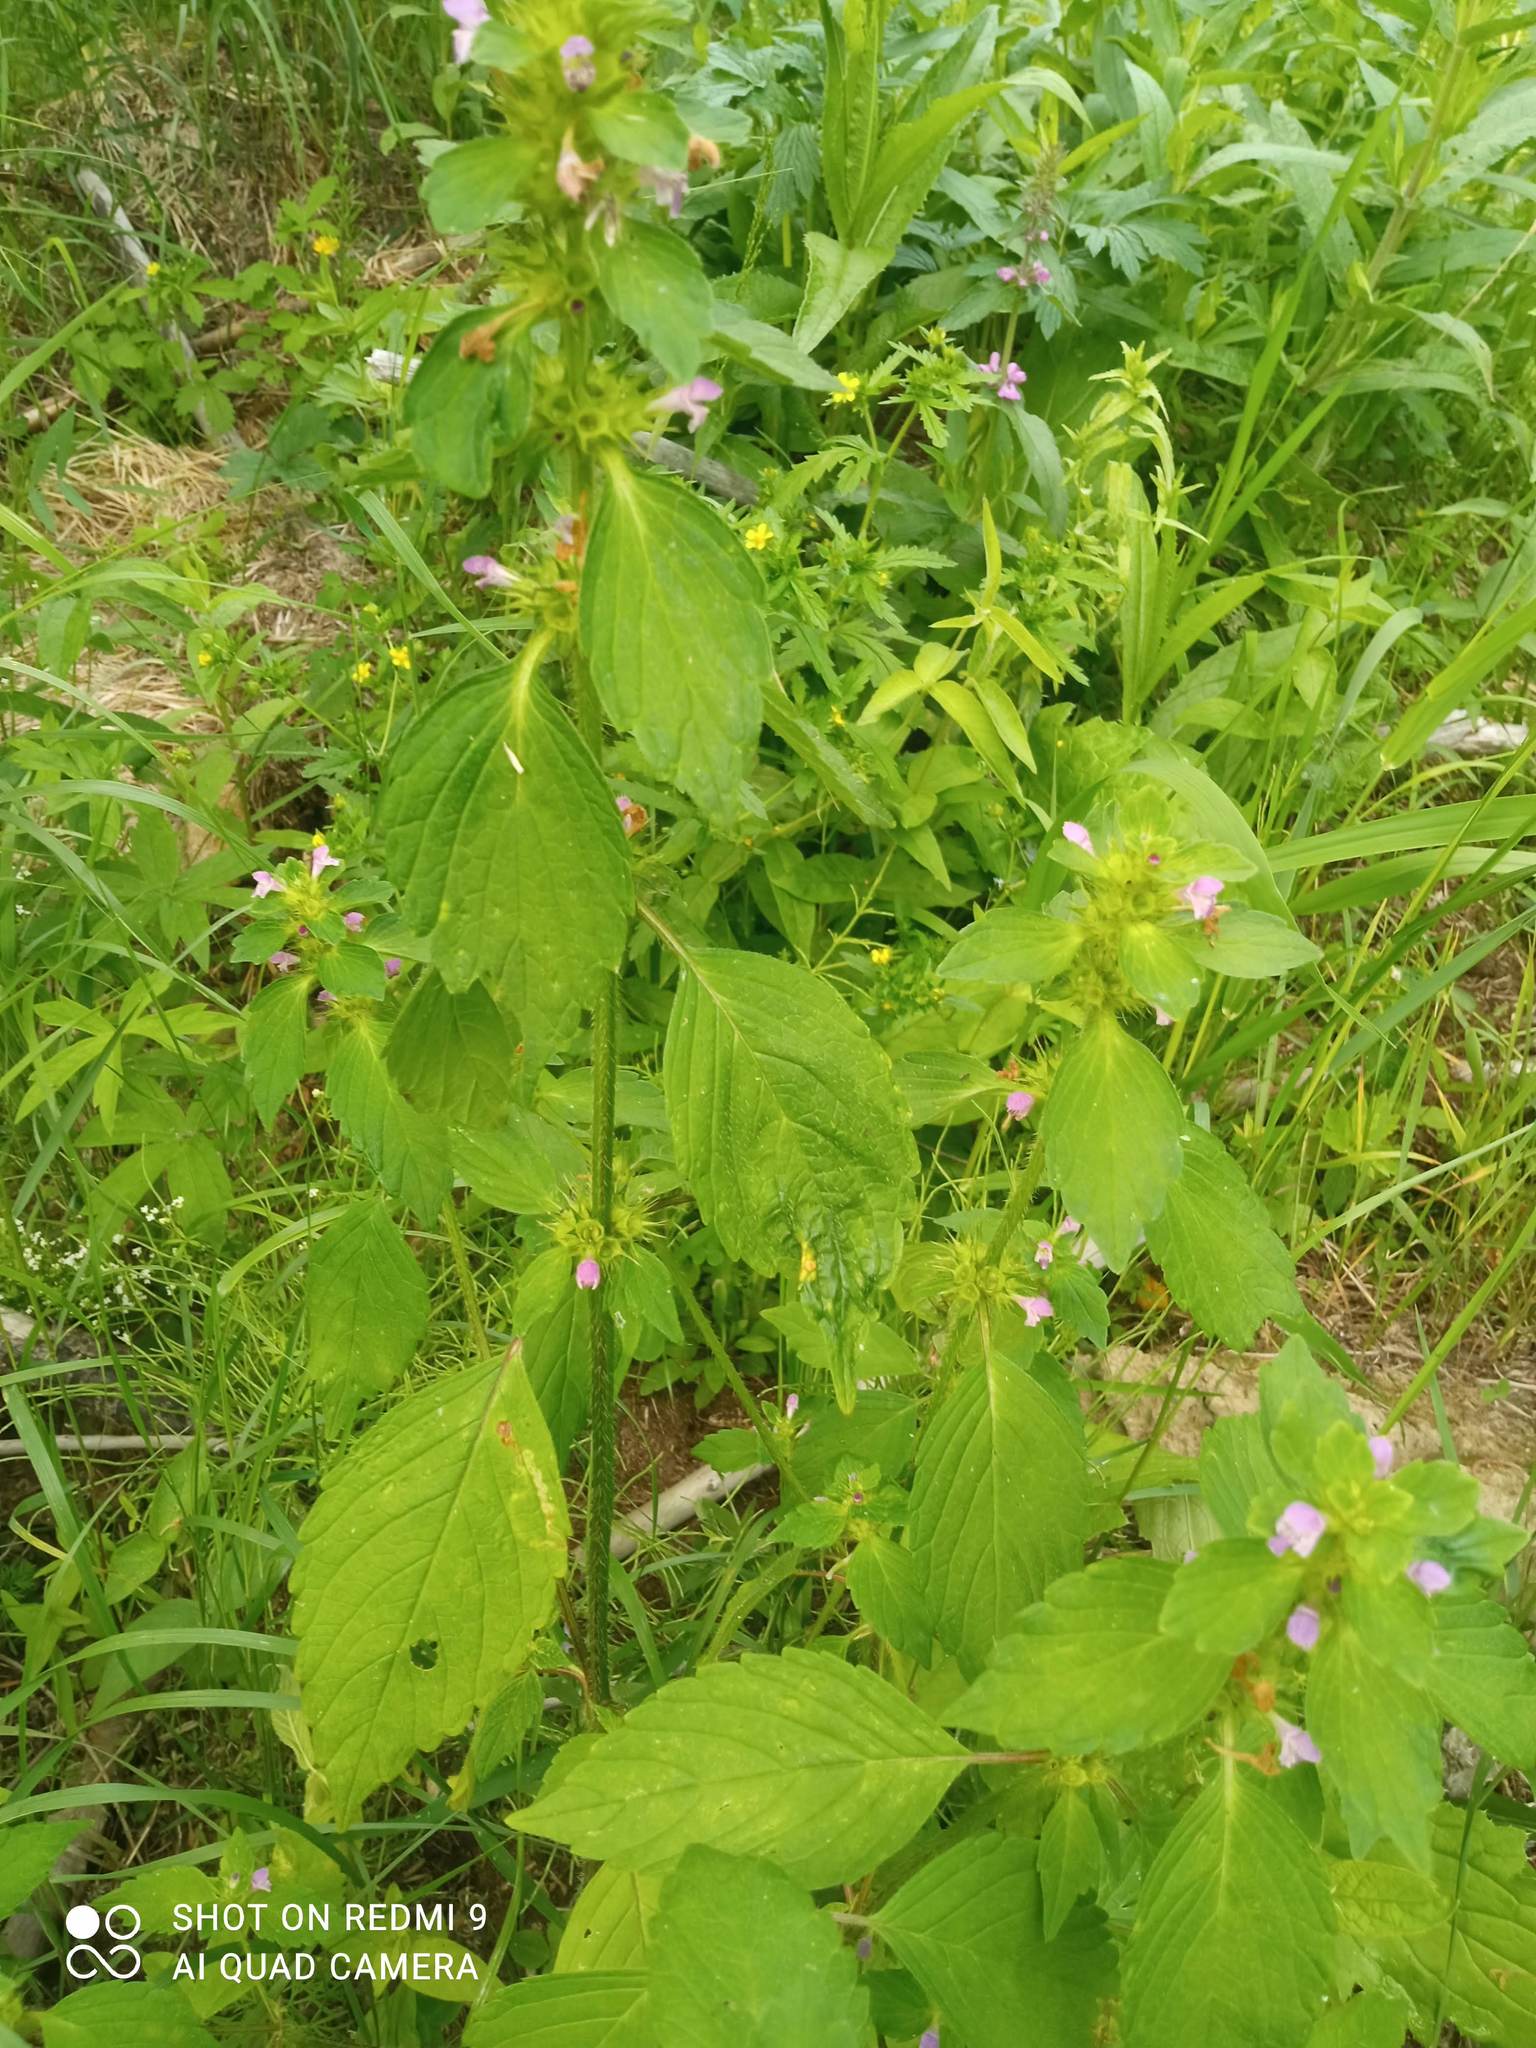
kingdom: Plantae
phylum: Tracheophyta
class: Magnoliopsida
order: Lamiales
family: Lamiaceae
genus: Galeopsis
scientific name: Galeopsis bifida
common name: Bifid hemp-nettle
